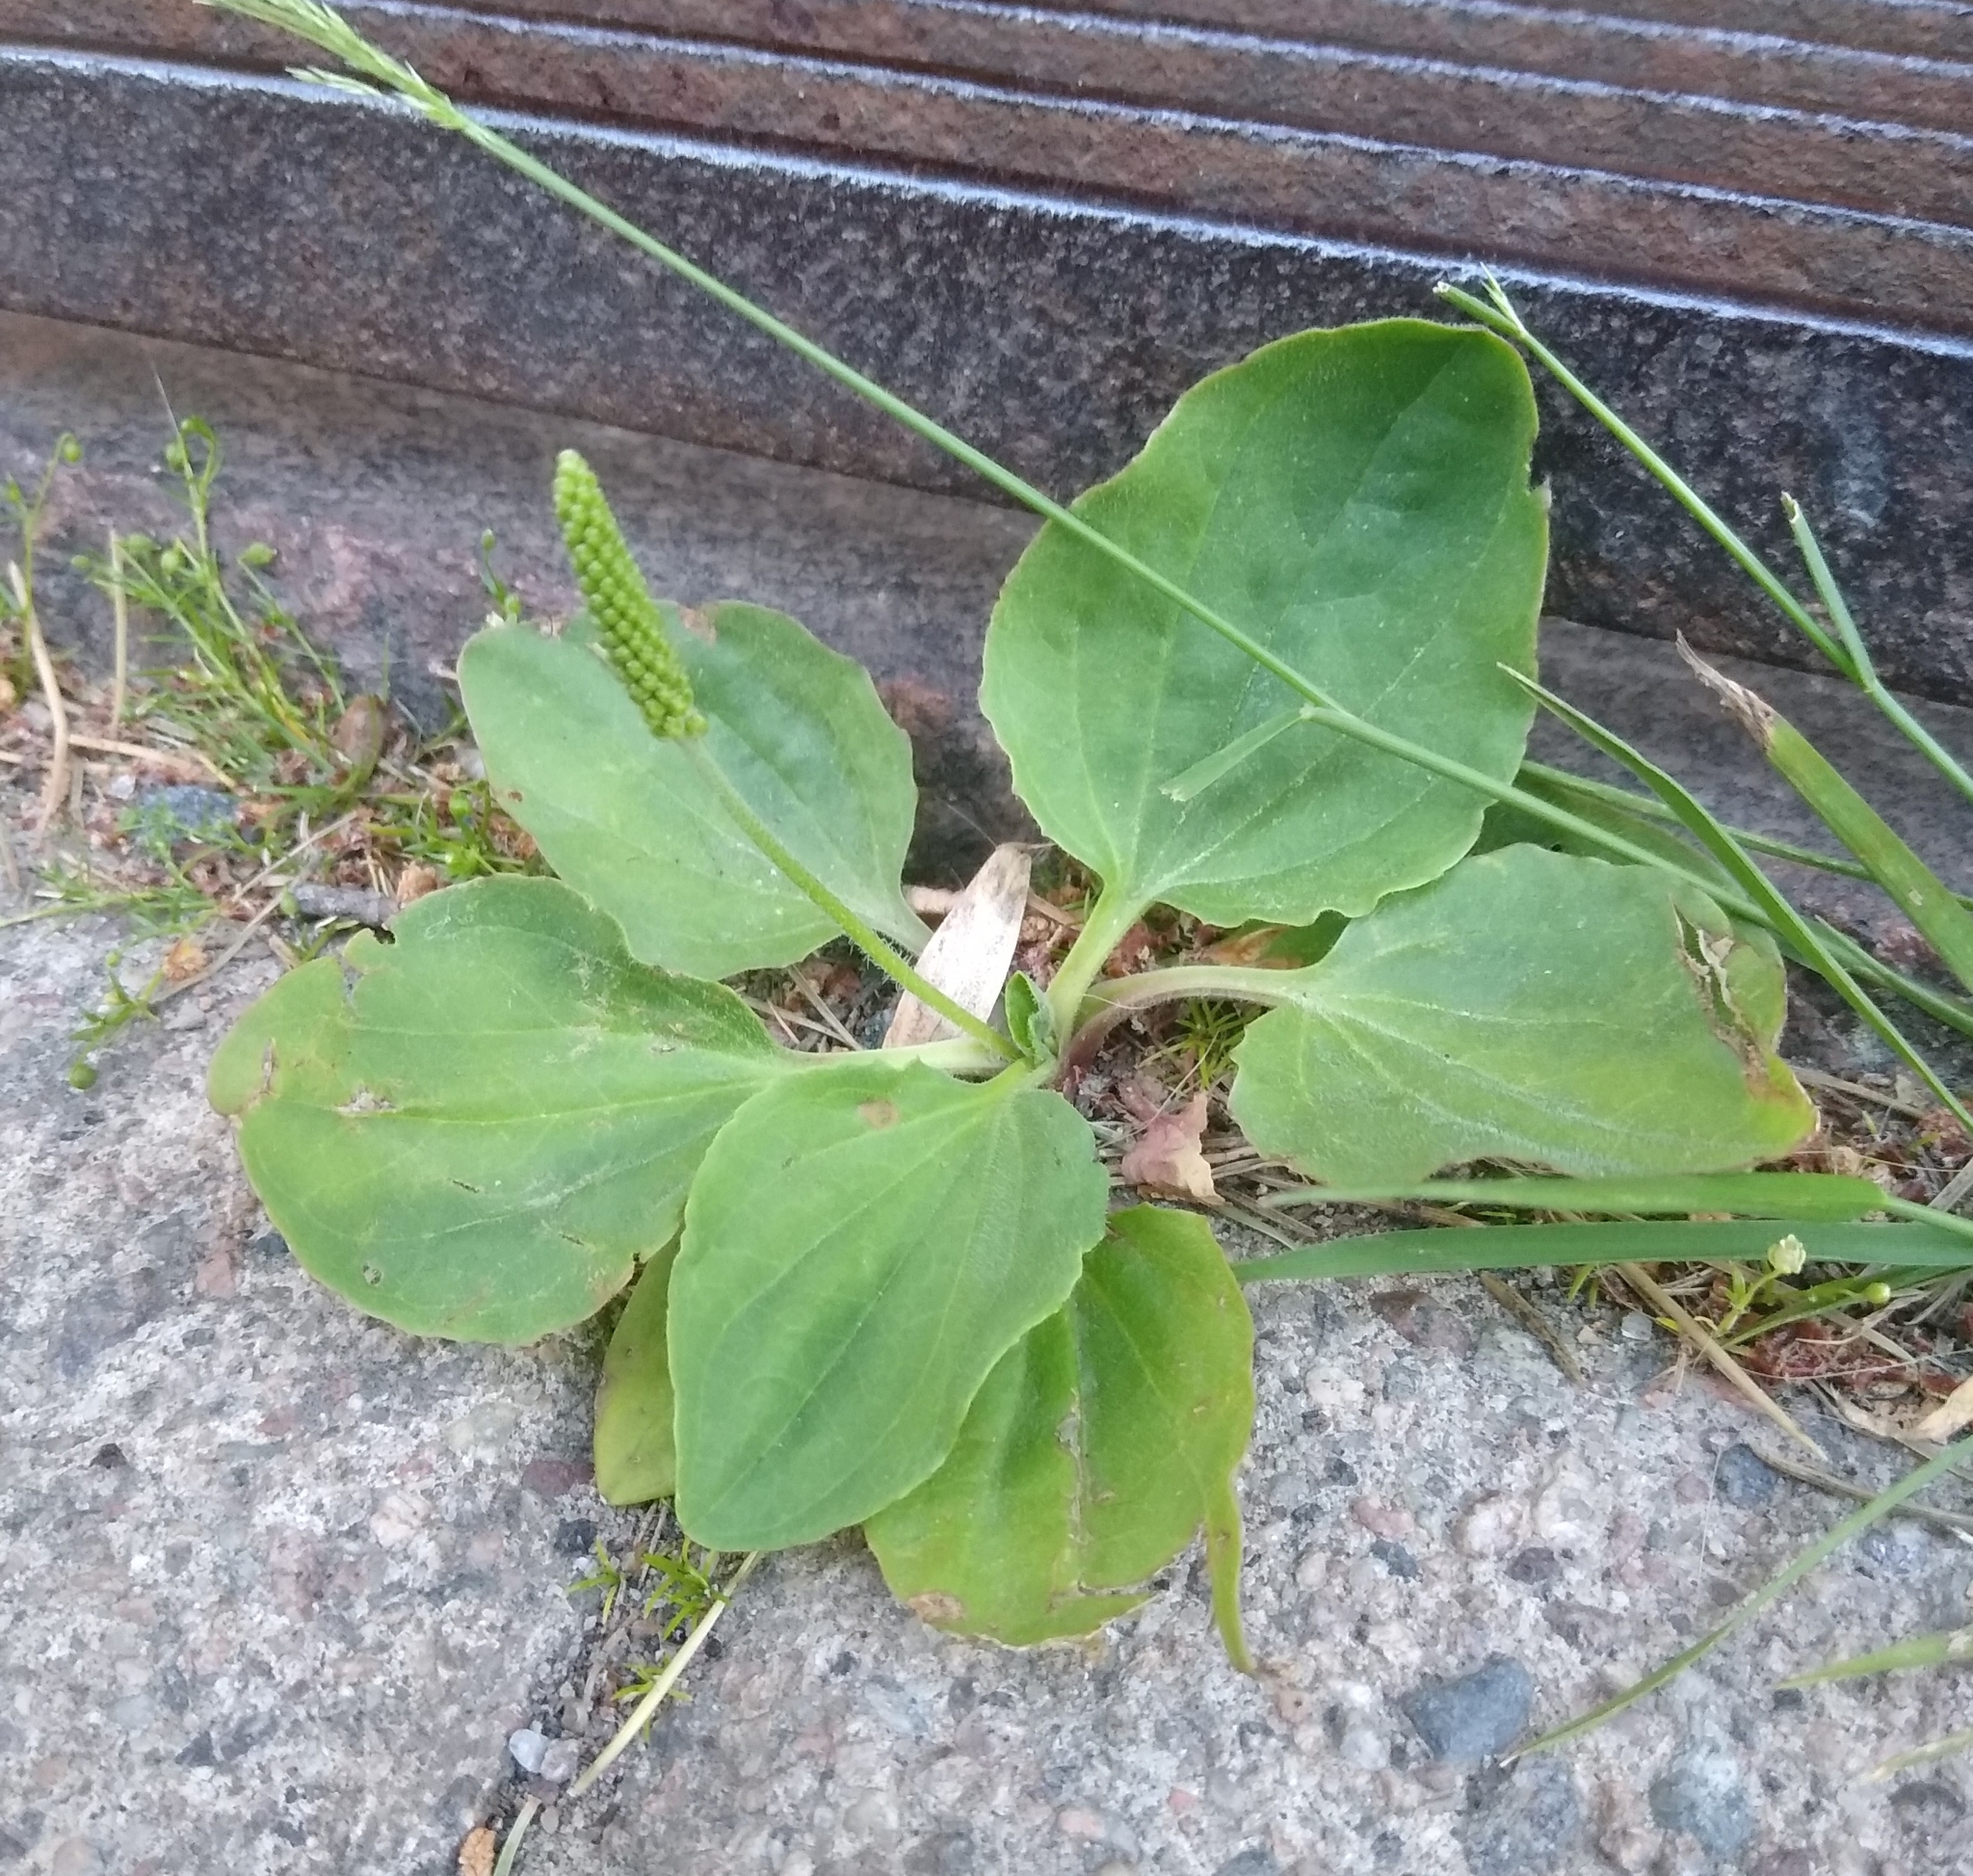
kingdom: Plantae
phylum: Tracheophyta
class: Magnoliopsida
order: Lamiales
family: Plantaginaceae
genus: Plantago
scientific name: Plantago major
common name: Common plantain
